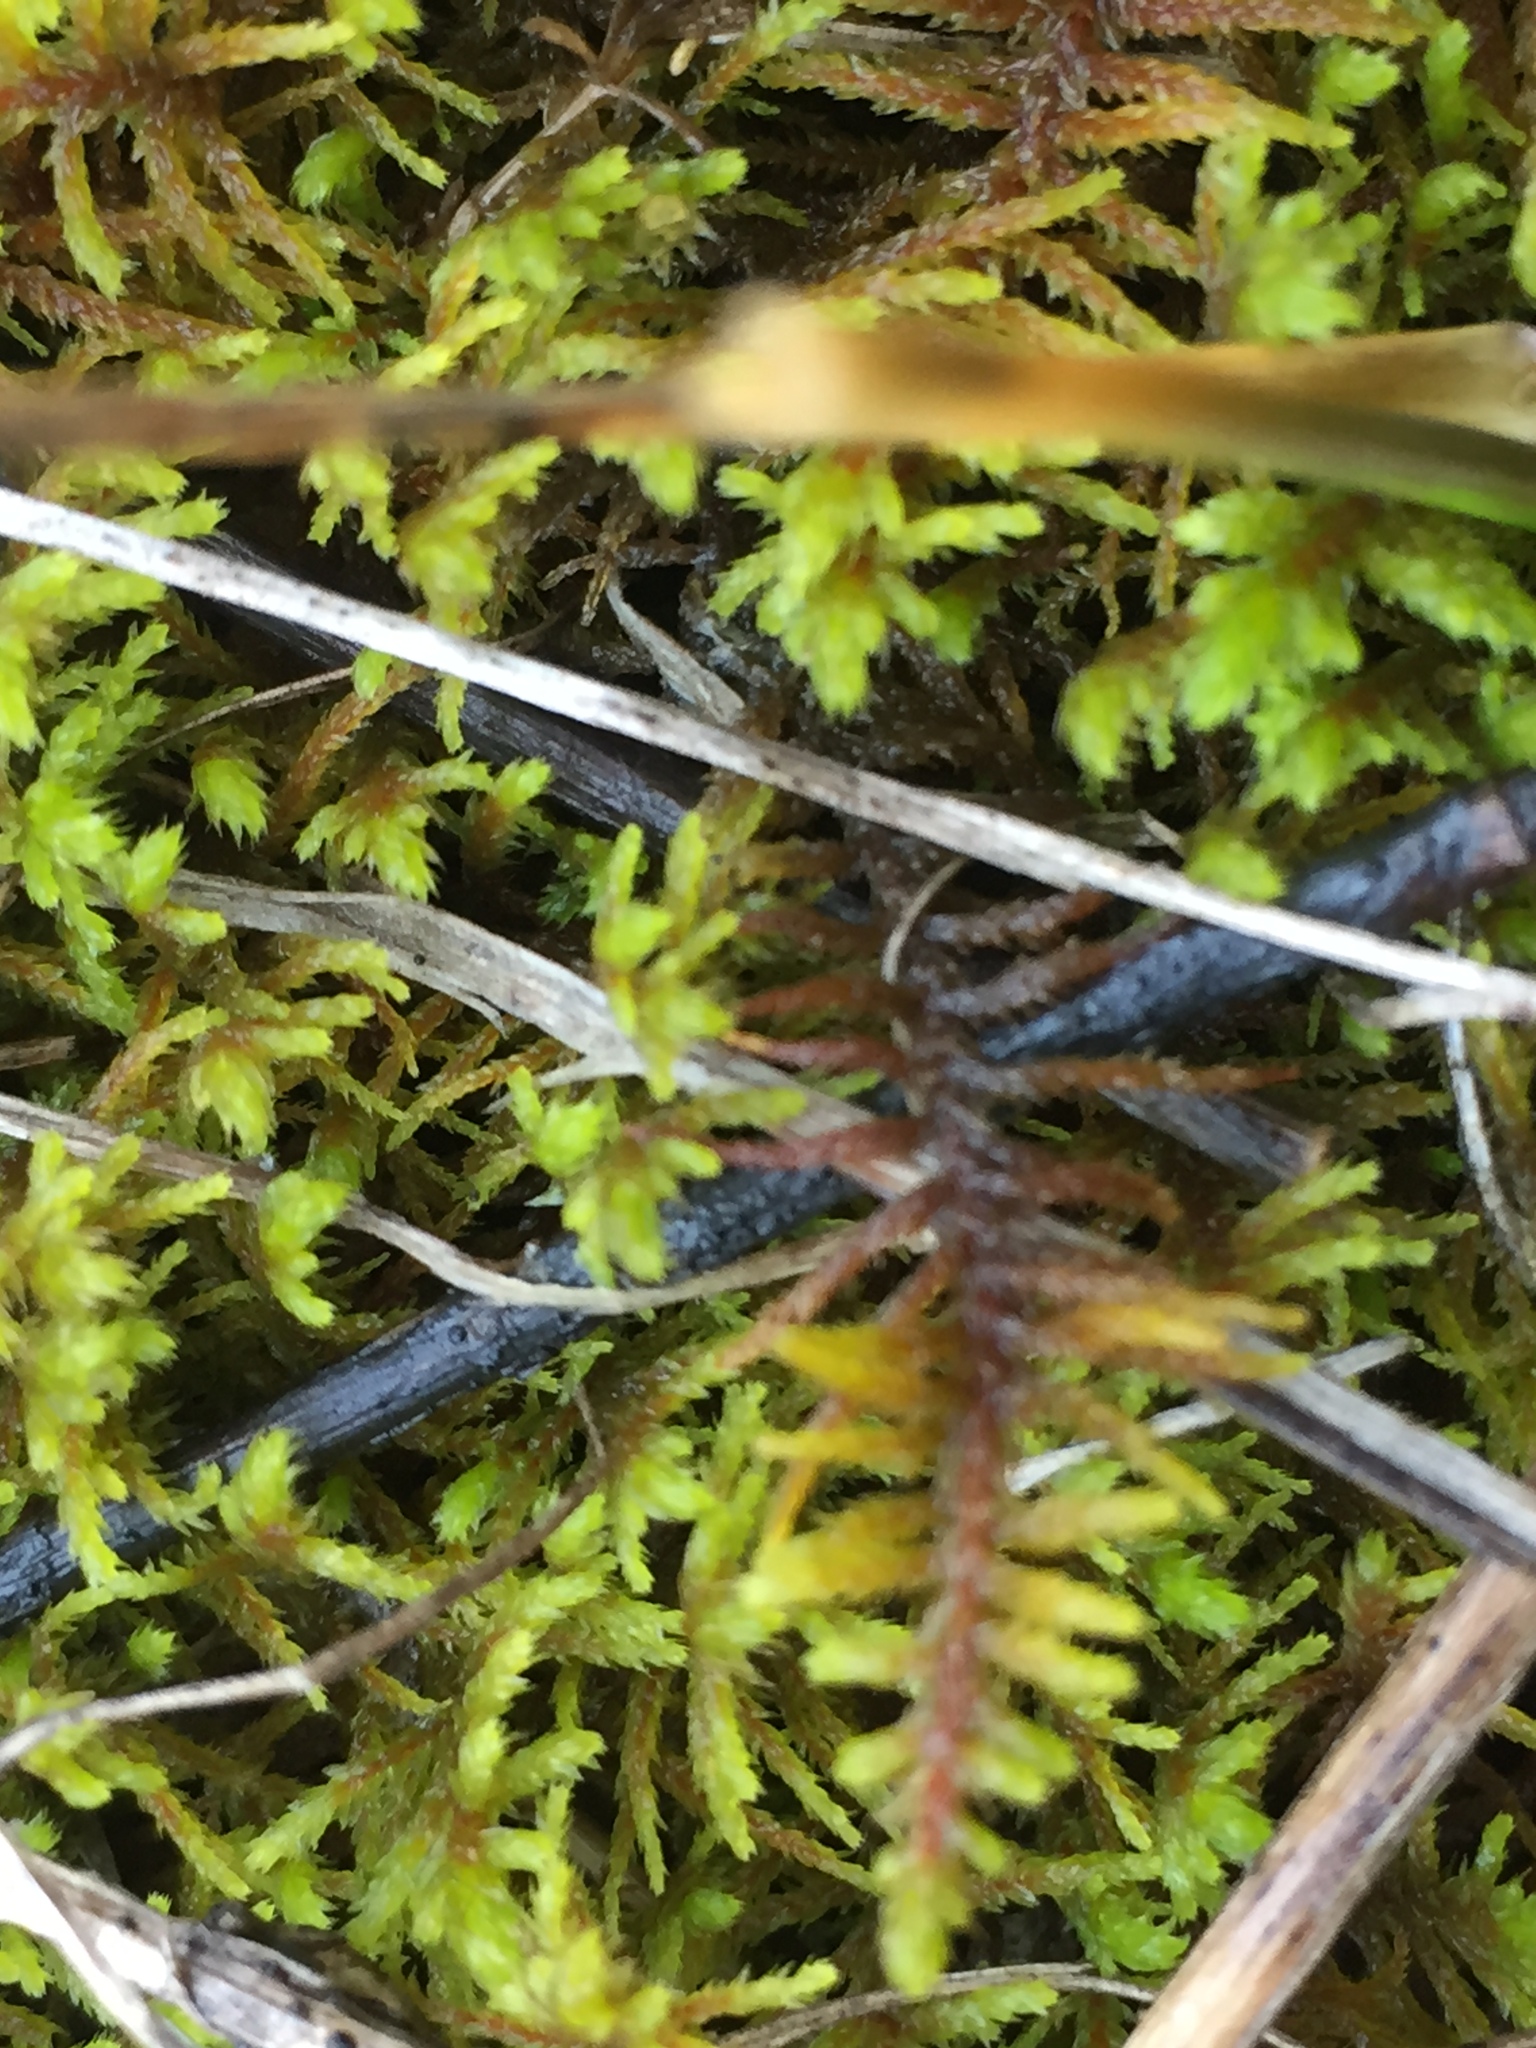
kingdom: Plantae
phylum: Bryophyta
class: Bryopsida
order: Hypnales
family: Hylocomiaceae
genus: Pleurozium
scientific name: Pleurozium schreberi
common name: Red-stemmed feather moss
